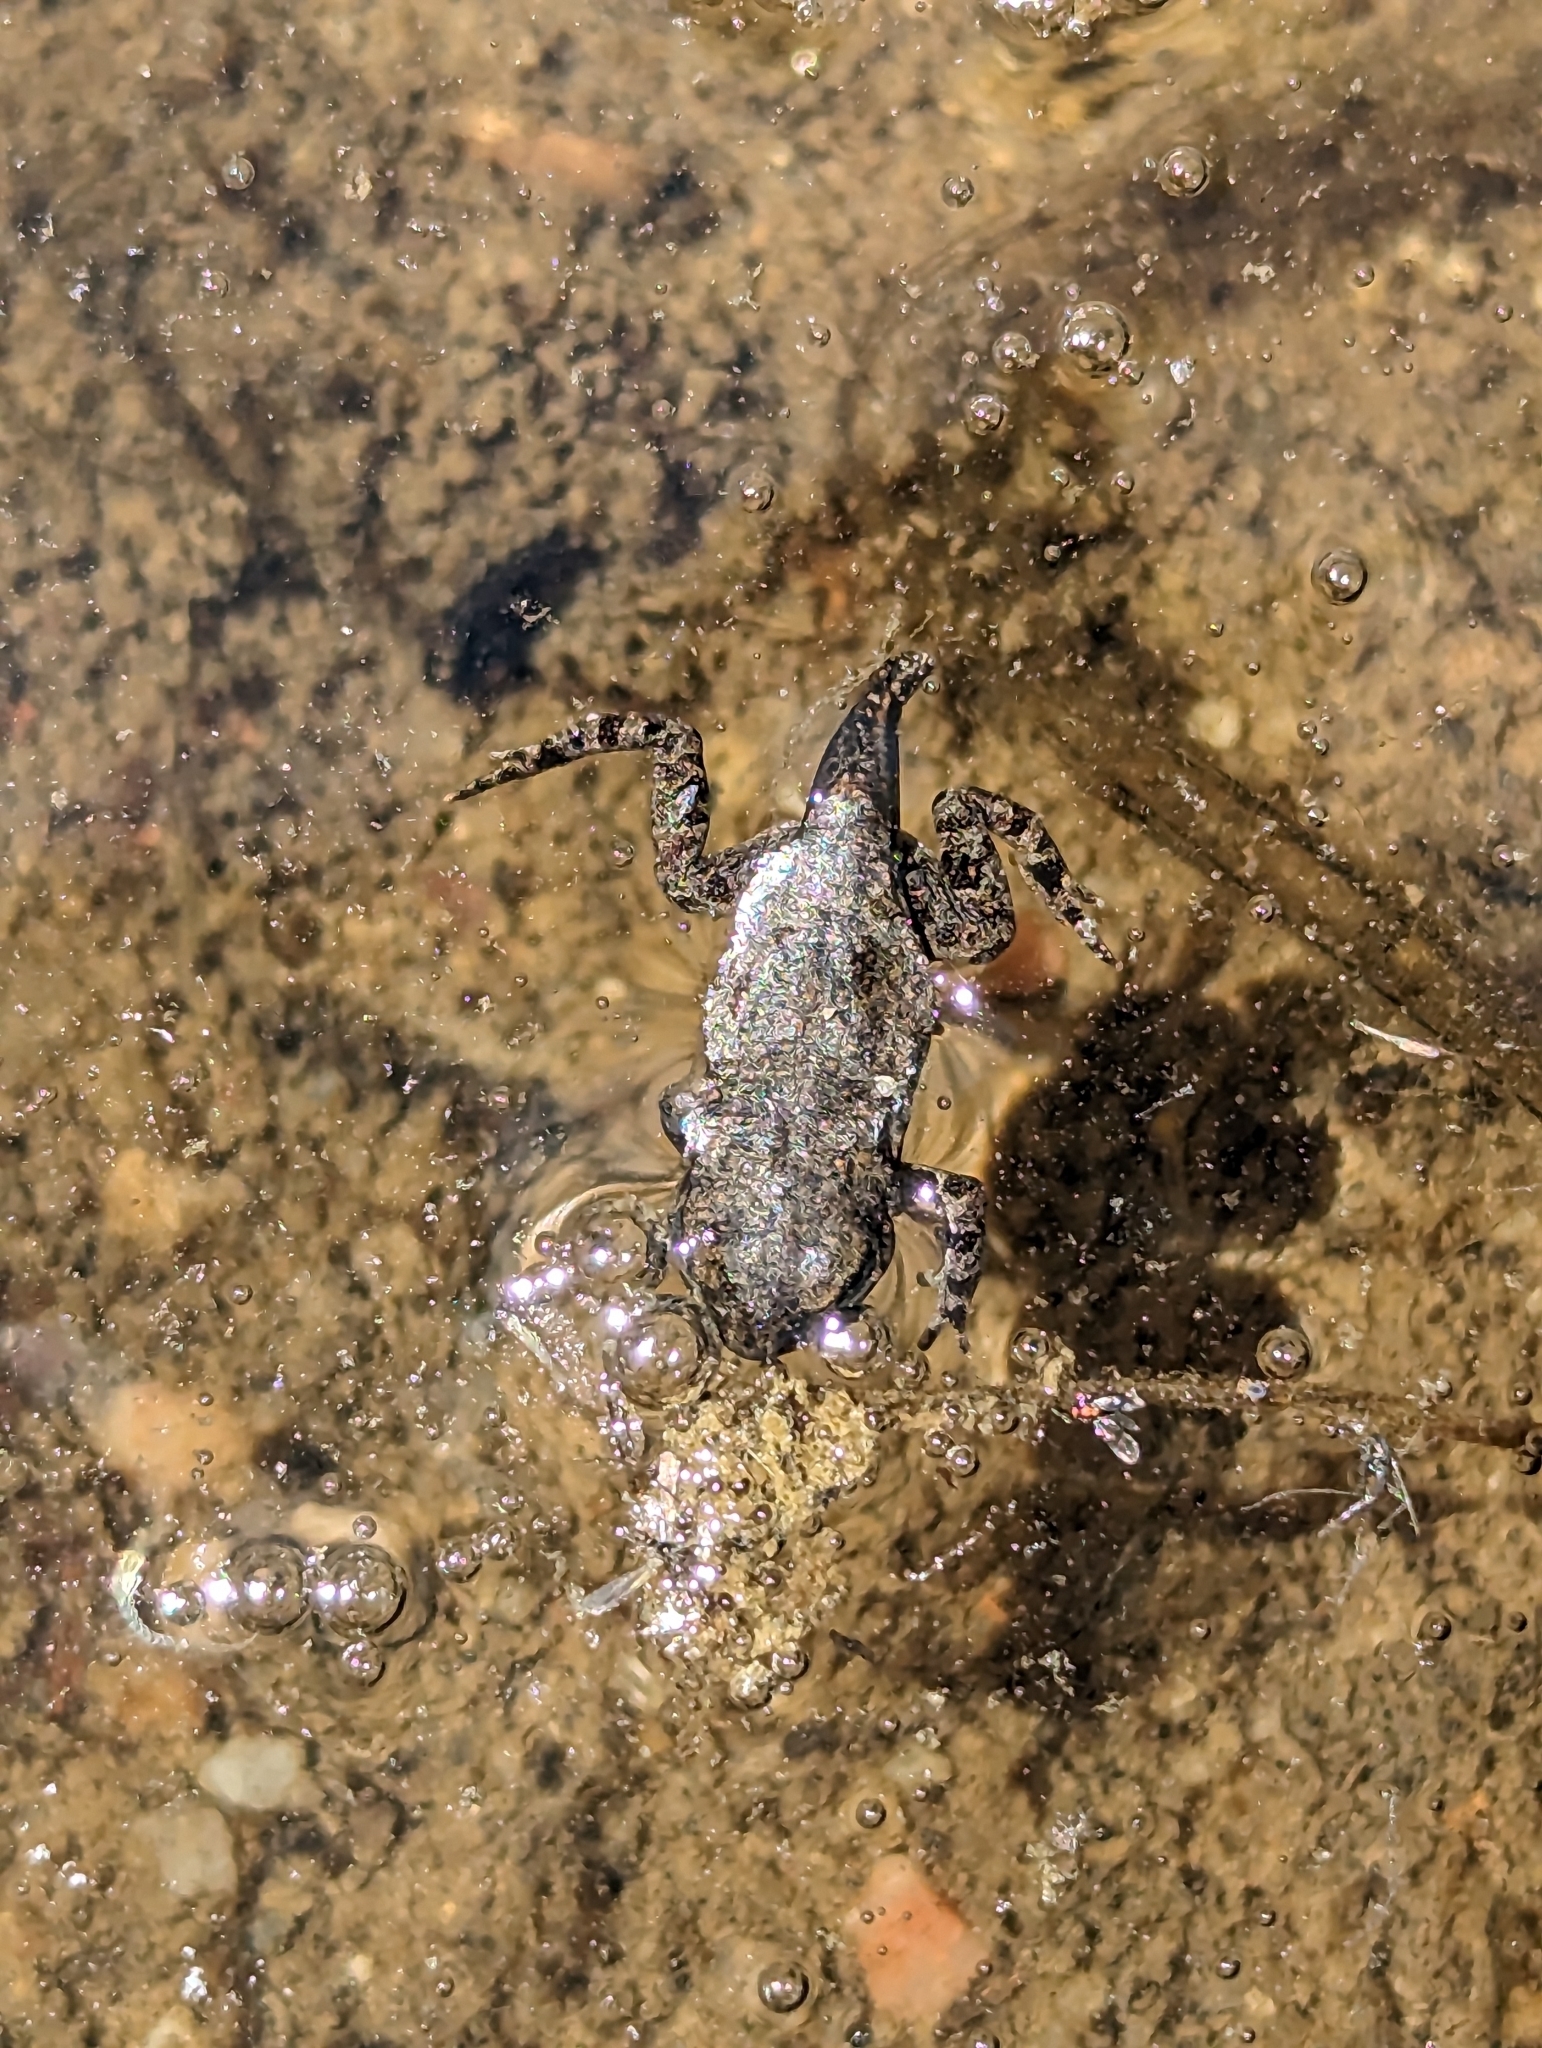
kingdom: Animalia
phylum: Chordata
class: Amphibia
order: Anura
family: Bufonidae
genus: Anaxyrus
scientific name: Anaxyrus woodhousii
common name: Woodhouse's toad
